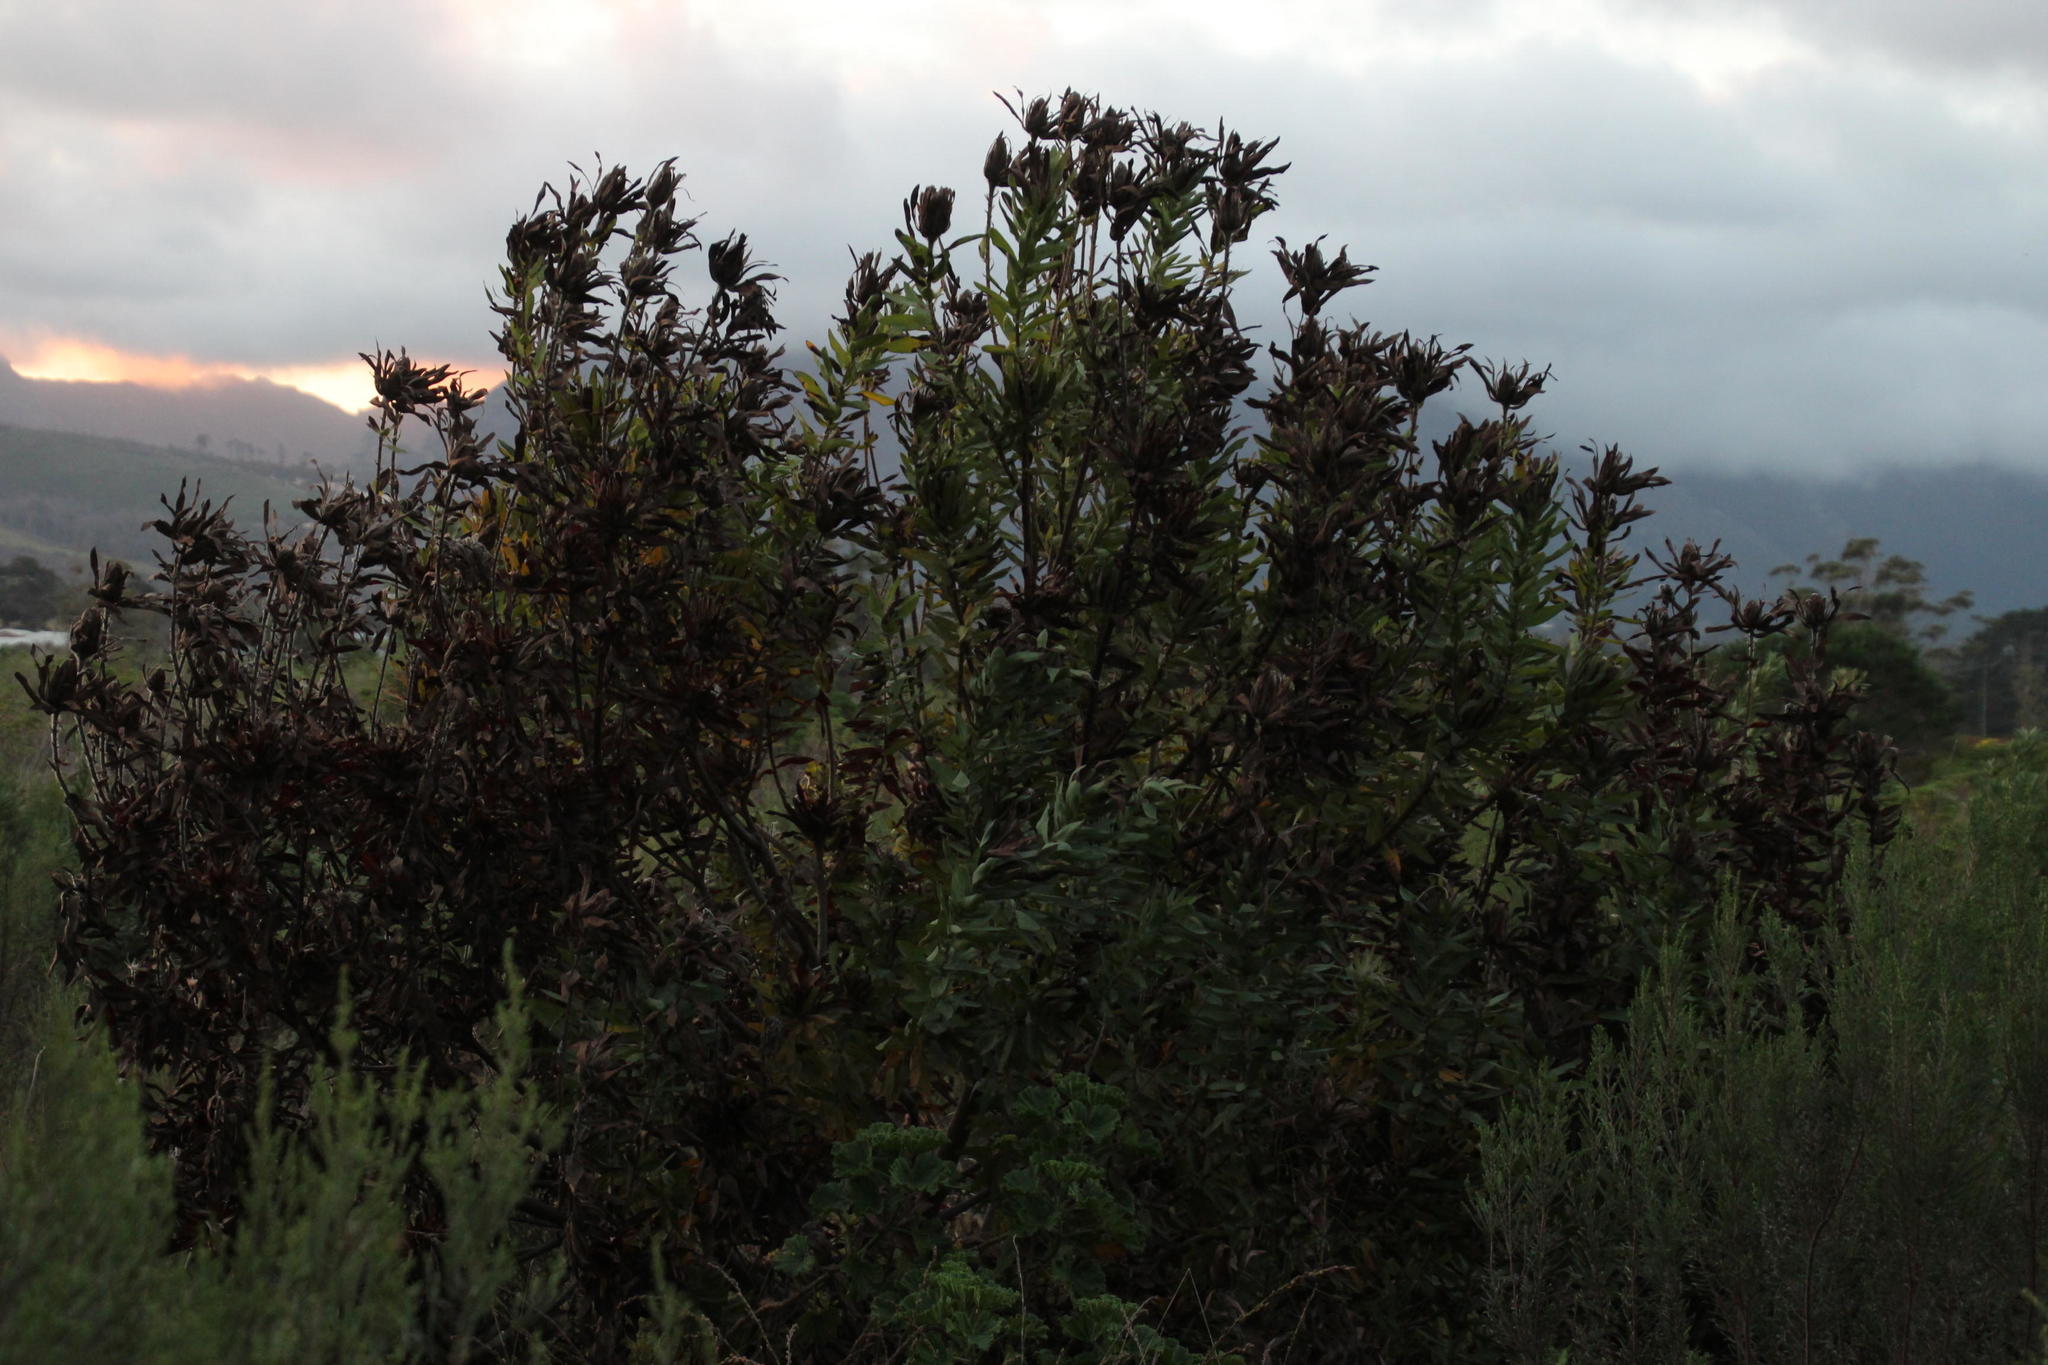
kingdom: Plantae
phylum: Tracheophyta
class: Magnoliopsida
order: Proteales
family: Proteaceae
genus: Protea
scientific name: Protea repens
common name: Sugarbush
